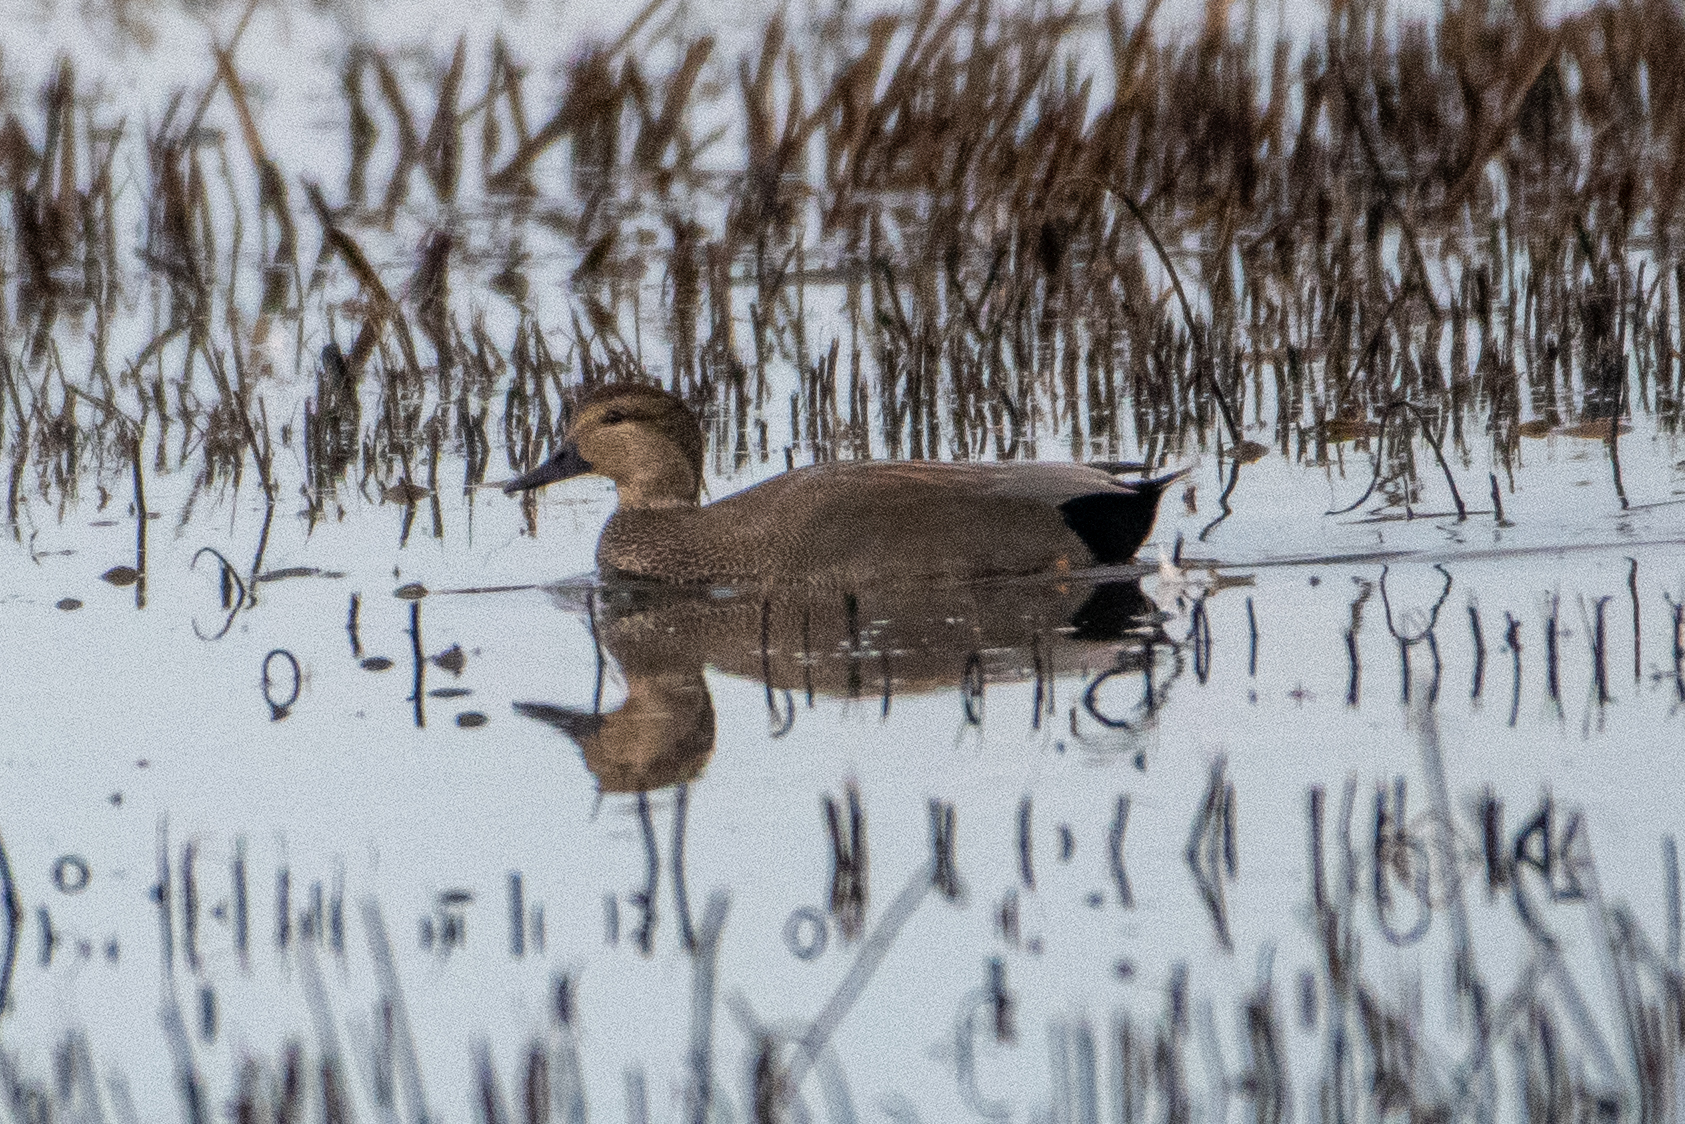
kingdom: Animalia
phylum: Chordata
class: Aves
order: Anseriformes
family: Anatidae
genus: Mareca
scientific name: Mareca strepera
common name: Gadwall
